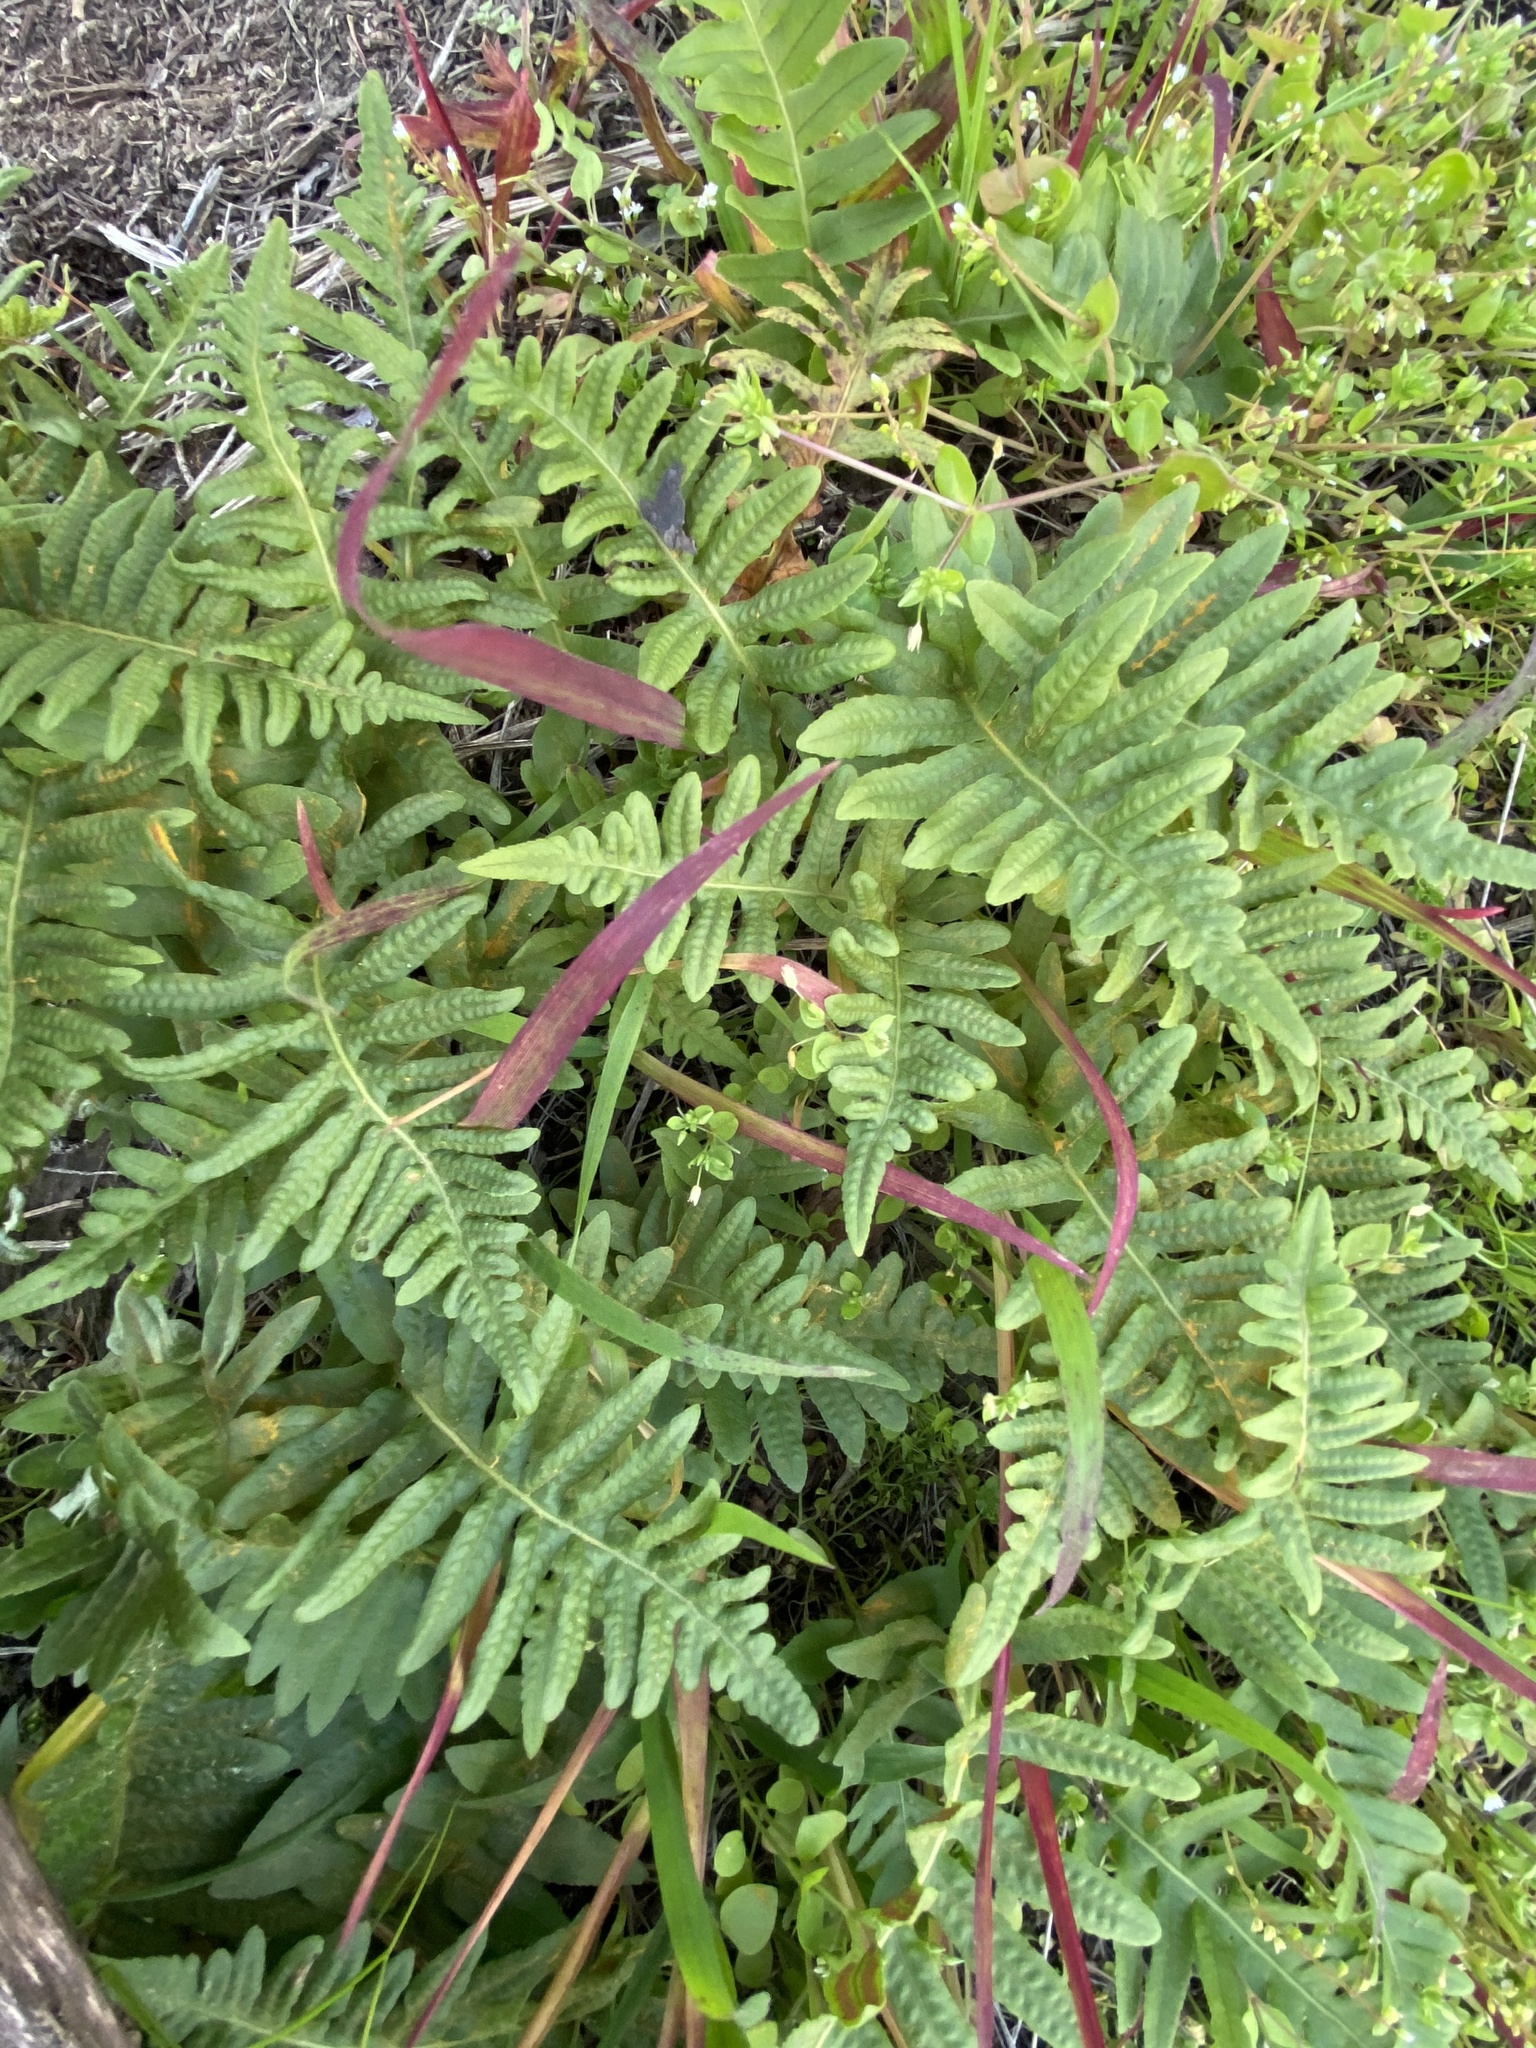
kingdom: Plantae
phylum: Tracheophyta
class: Polypodiopsida
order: Polypodiales
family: Polypodiaceae
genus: Polypodium
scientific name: Polypodium californicum
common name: California polypody
